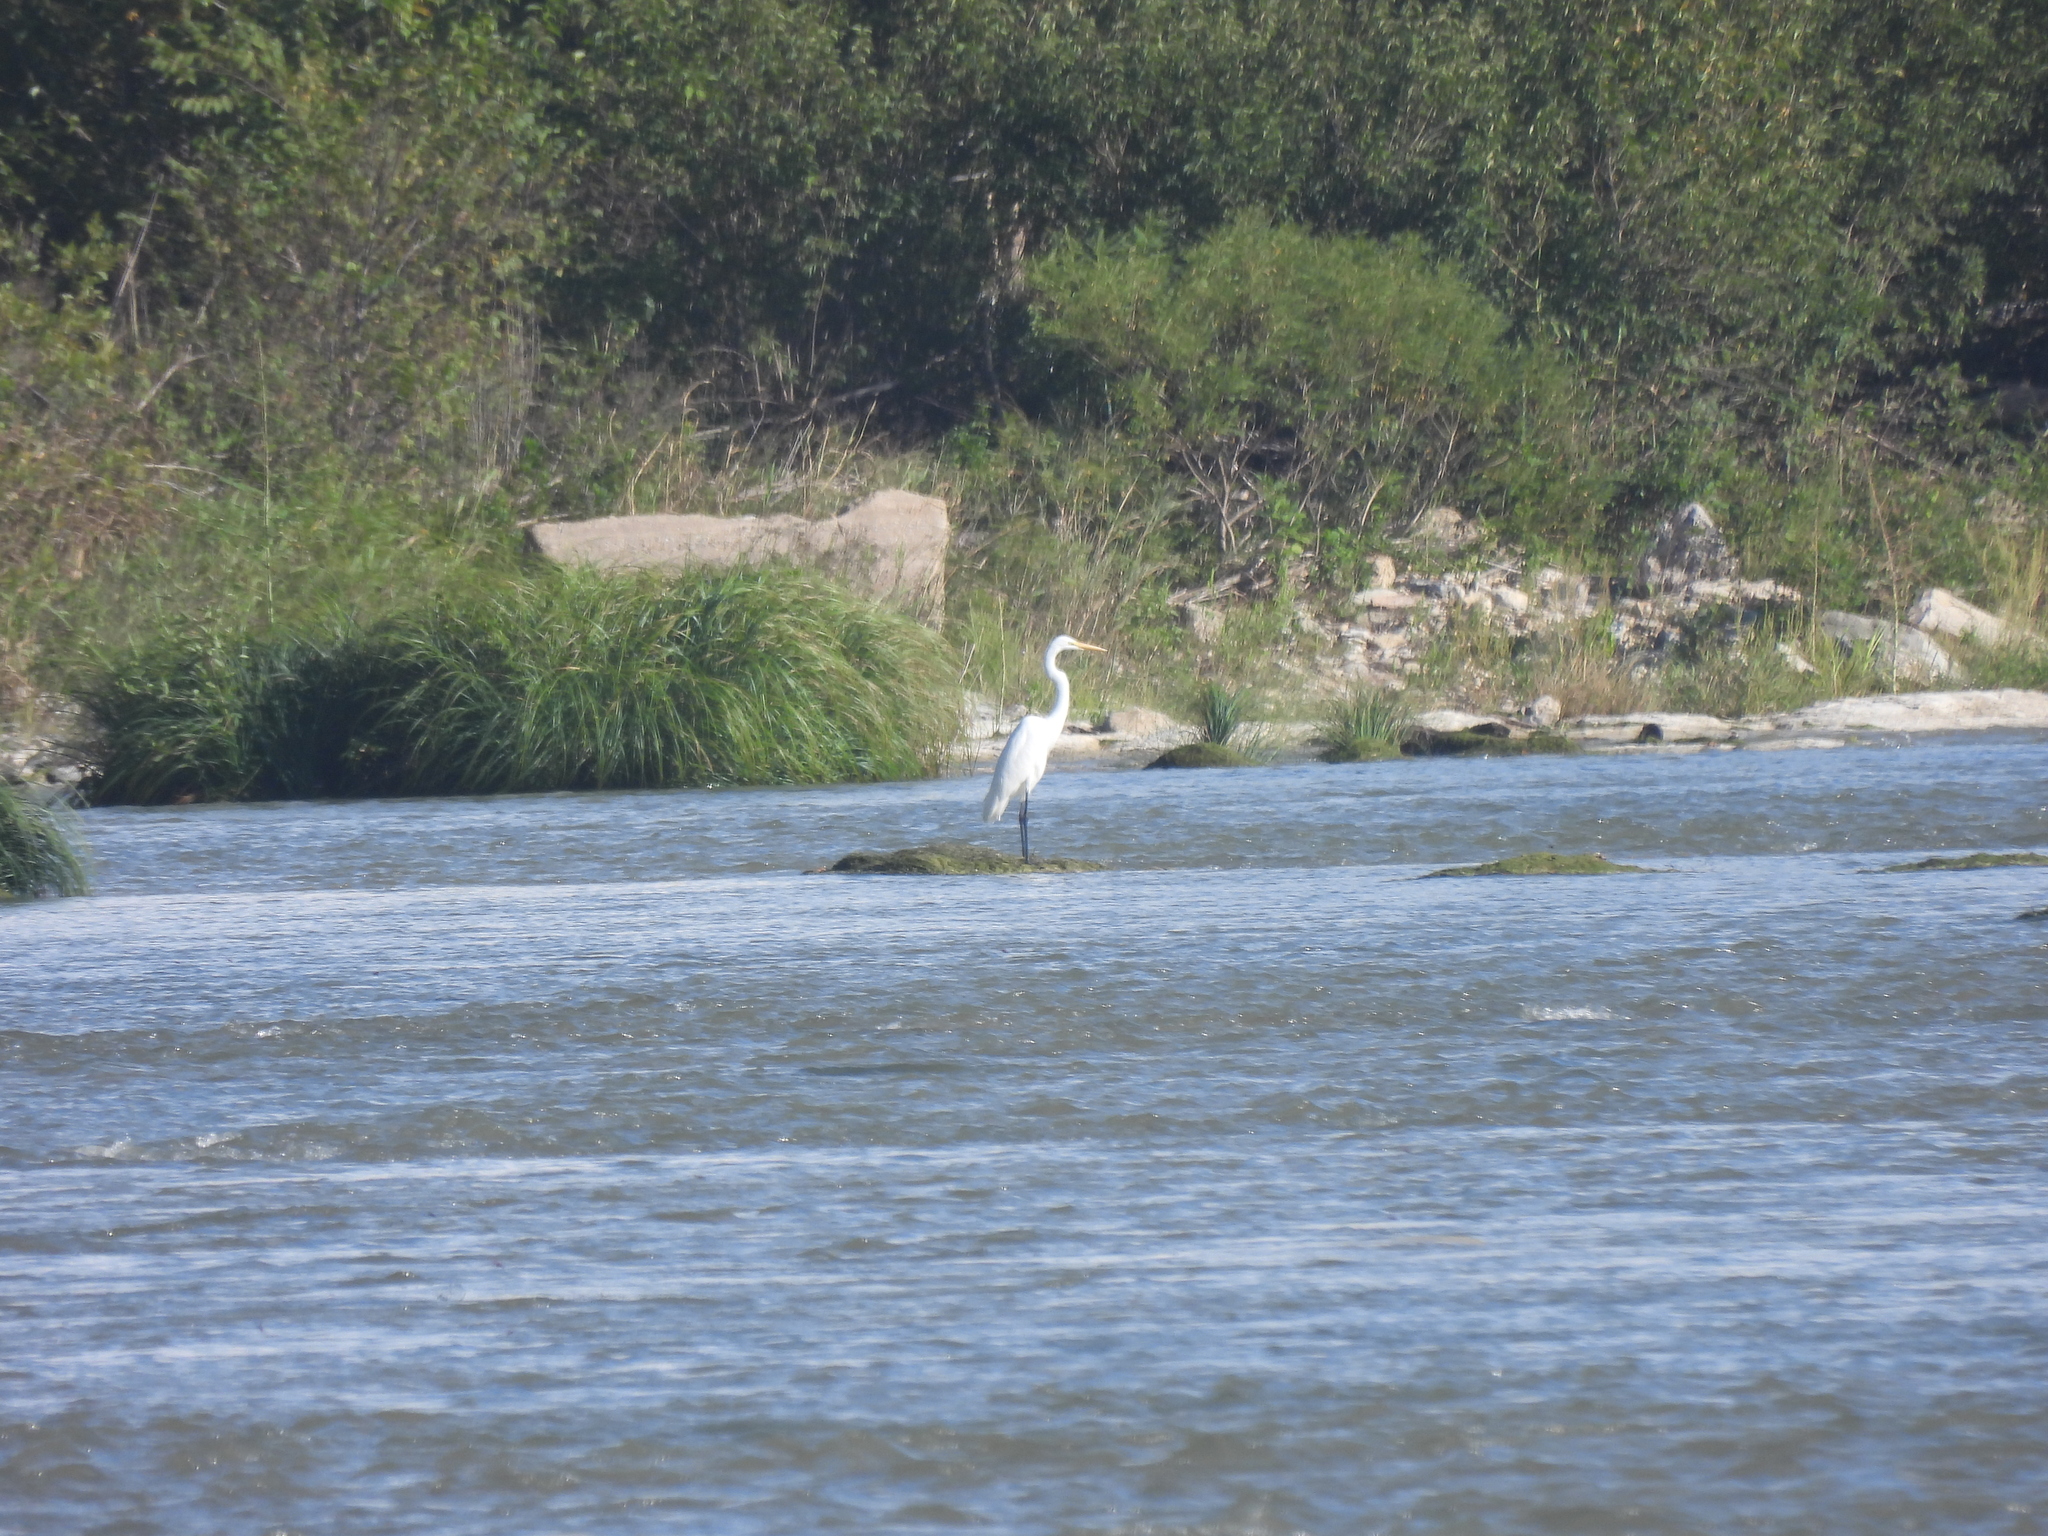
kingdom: Animalia
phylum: Chordata
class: Aves
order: Pelecaniformes
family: Ardeidae
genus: Ardea
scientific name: Ardea alba
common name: Great egret
